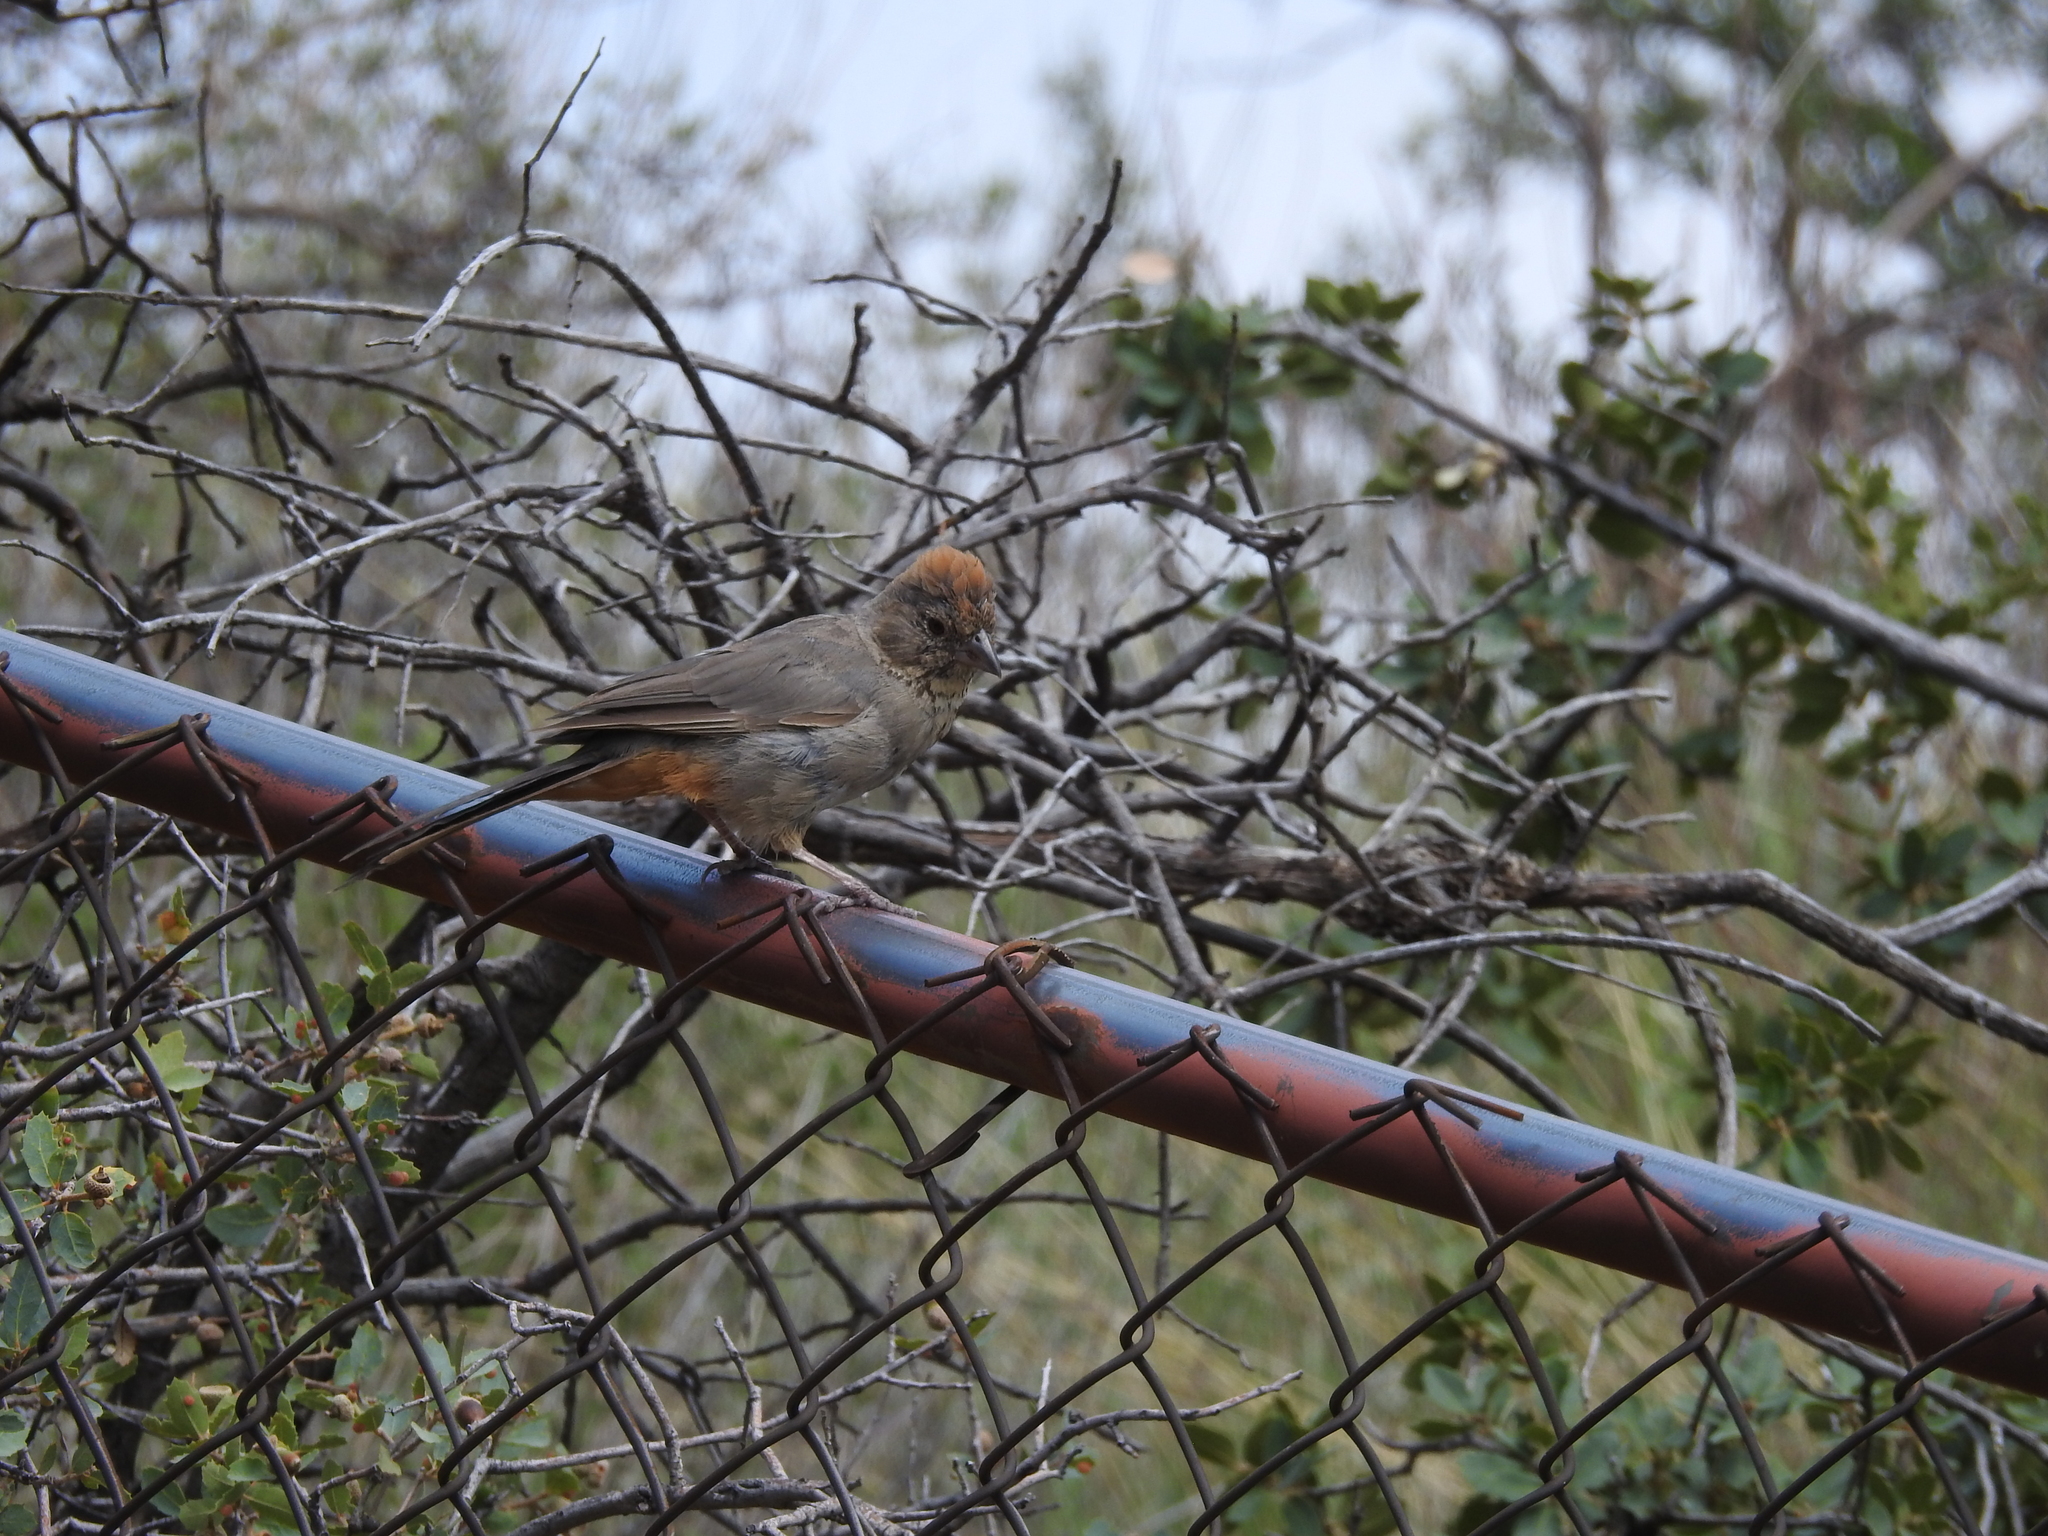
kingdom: Animalia
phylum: Chordata
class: Aves
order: Passeriformes
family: Passerellidae
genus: Melozone
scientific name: Melozone fusca
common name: Canyon towhee
